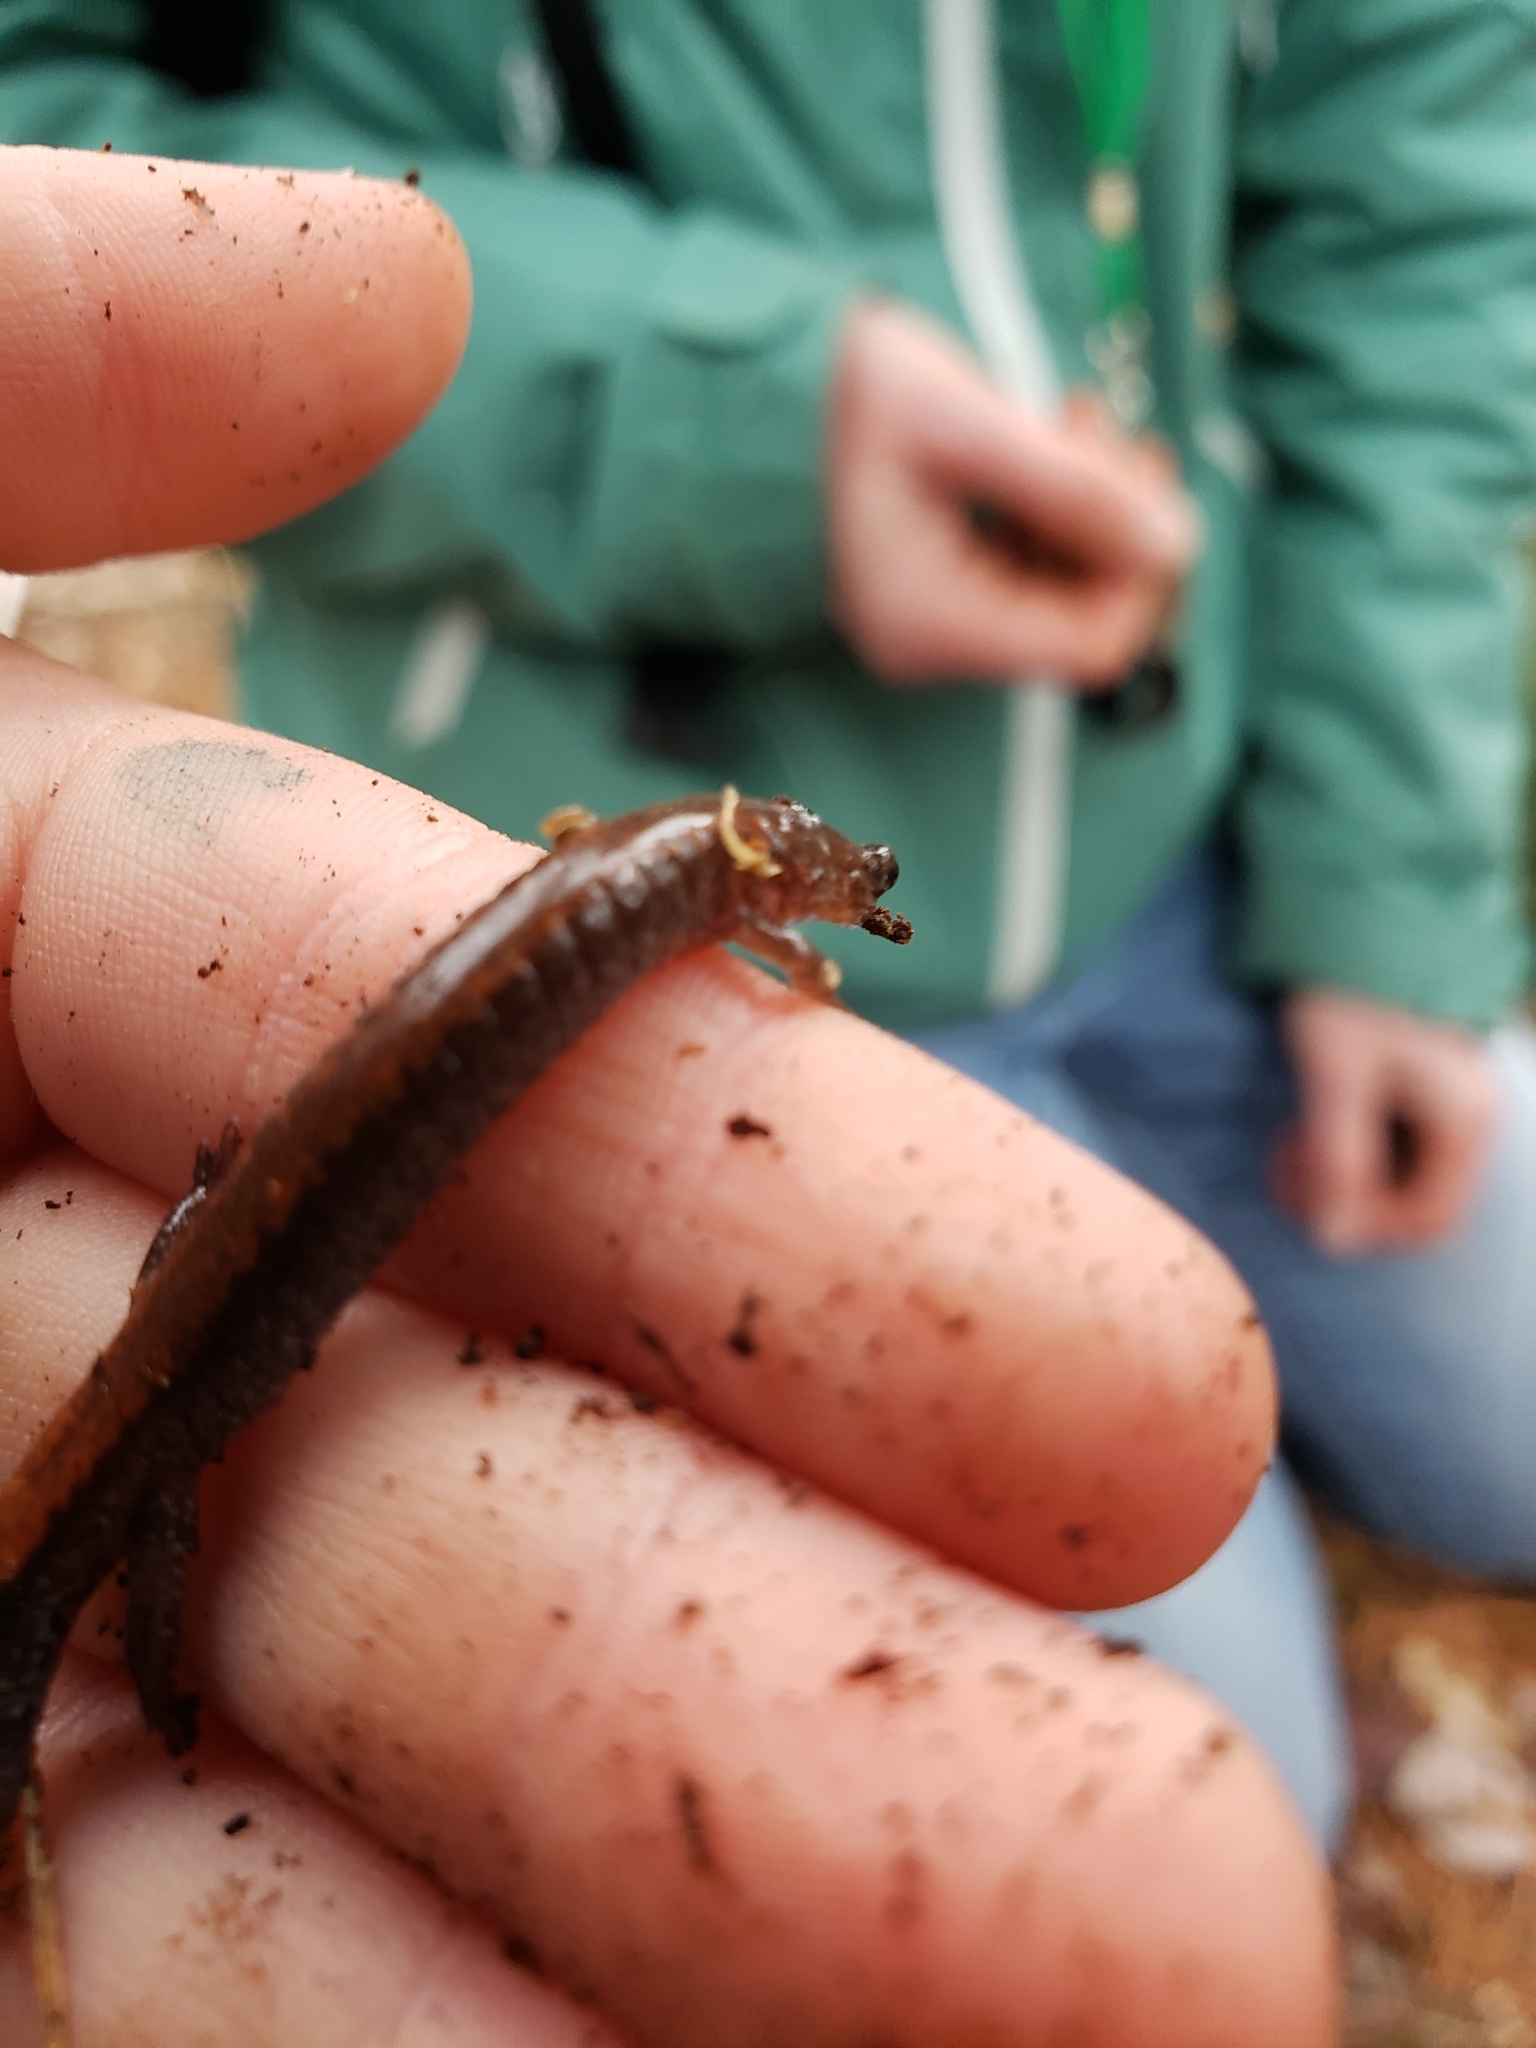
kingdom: Animalia
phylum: Chordata
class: Amphibia
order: Caudata
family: Plethodontidae
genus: Plethodon
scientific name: Plethodon cinereus
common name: Redback salamander
